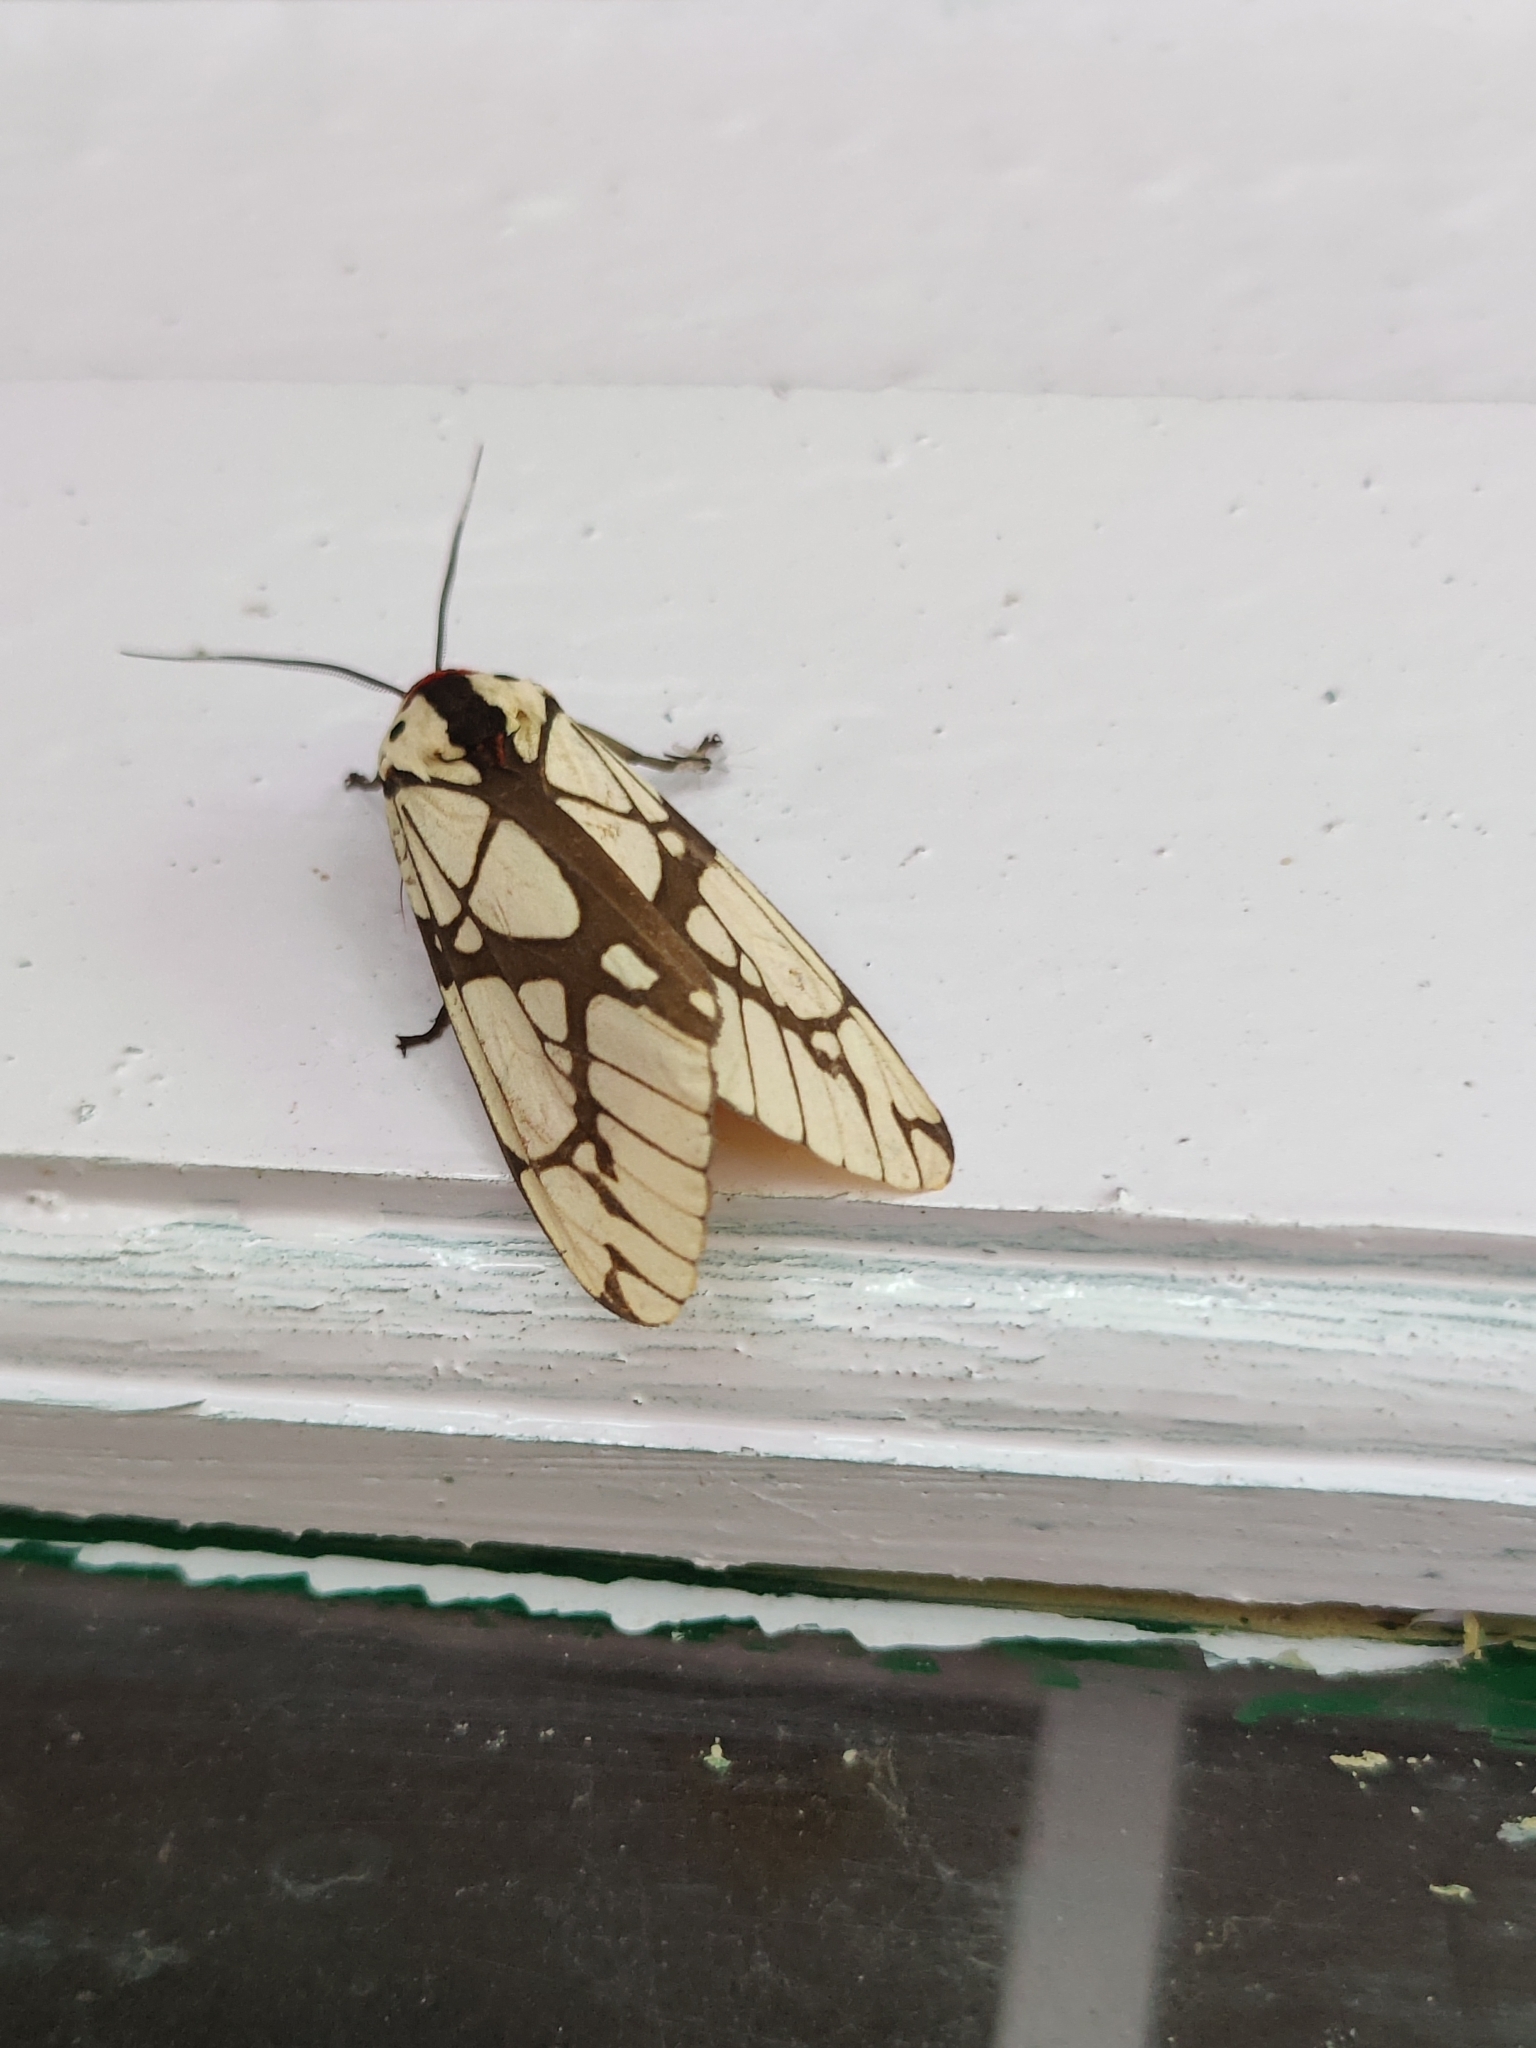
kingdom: Animalia
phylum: Arthropoda
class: Insecta
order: Lepidoptera
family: Erebidae
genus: Areas
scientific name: Areas galactina
